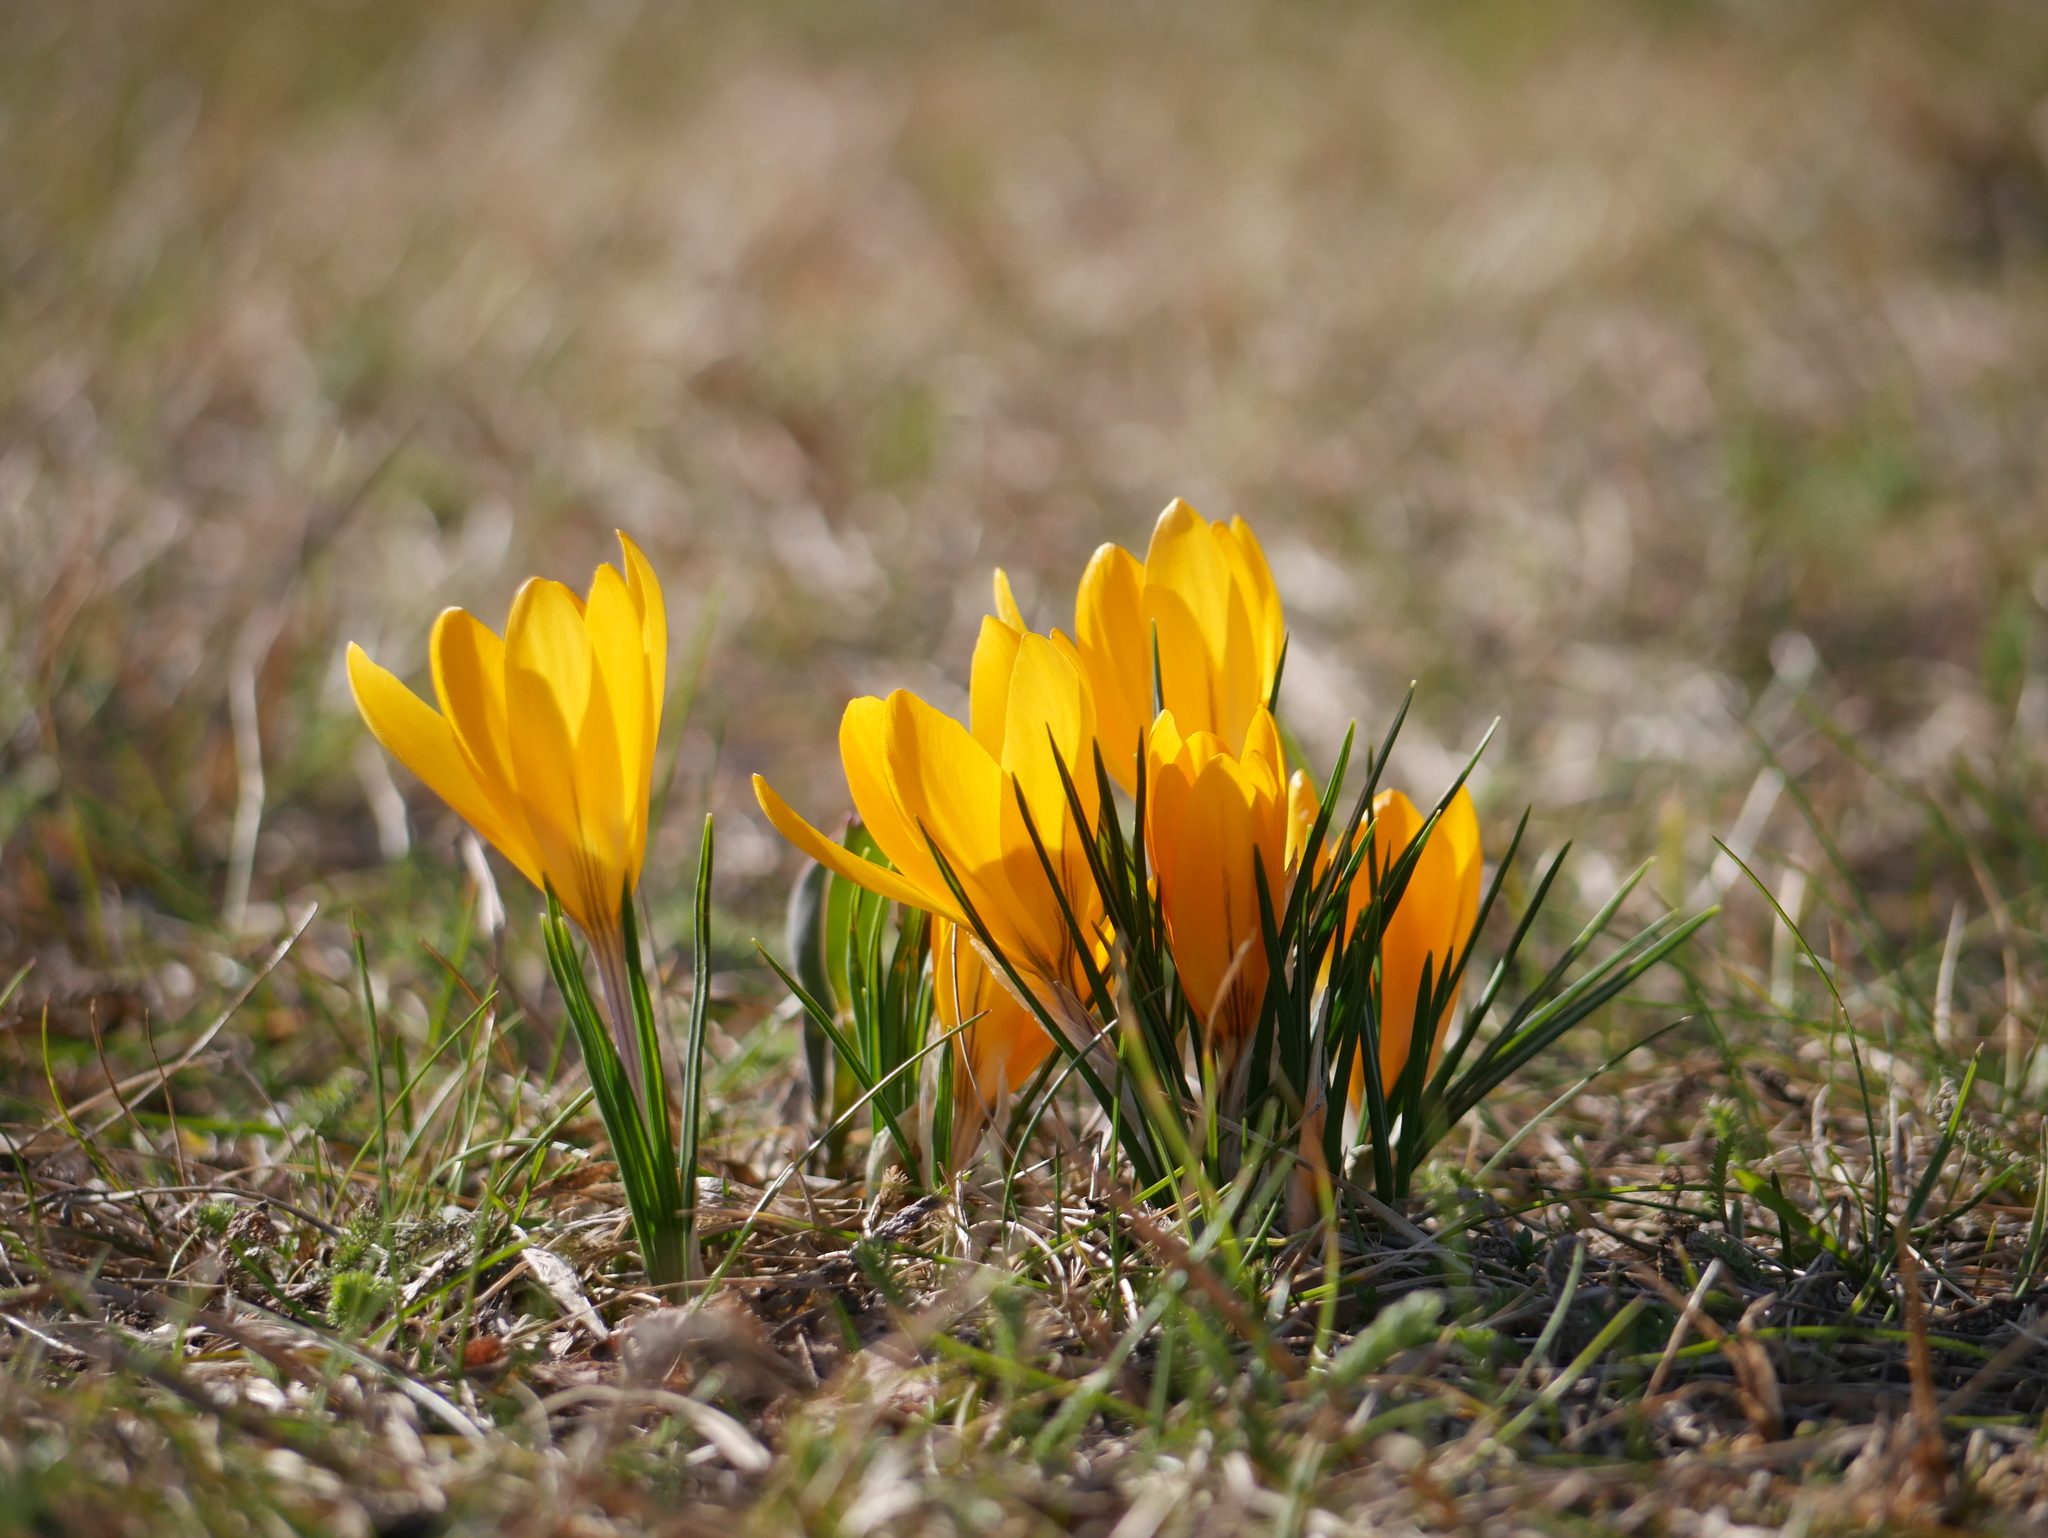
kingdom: Plantae
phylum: Tracheophyta
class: Liliopsida
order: Asparagales
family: Iridaceae
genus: Crocus
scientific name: Crocus luteus
